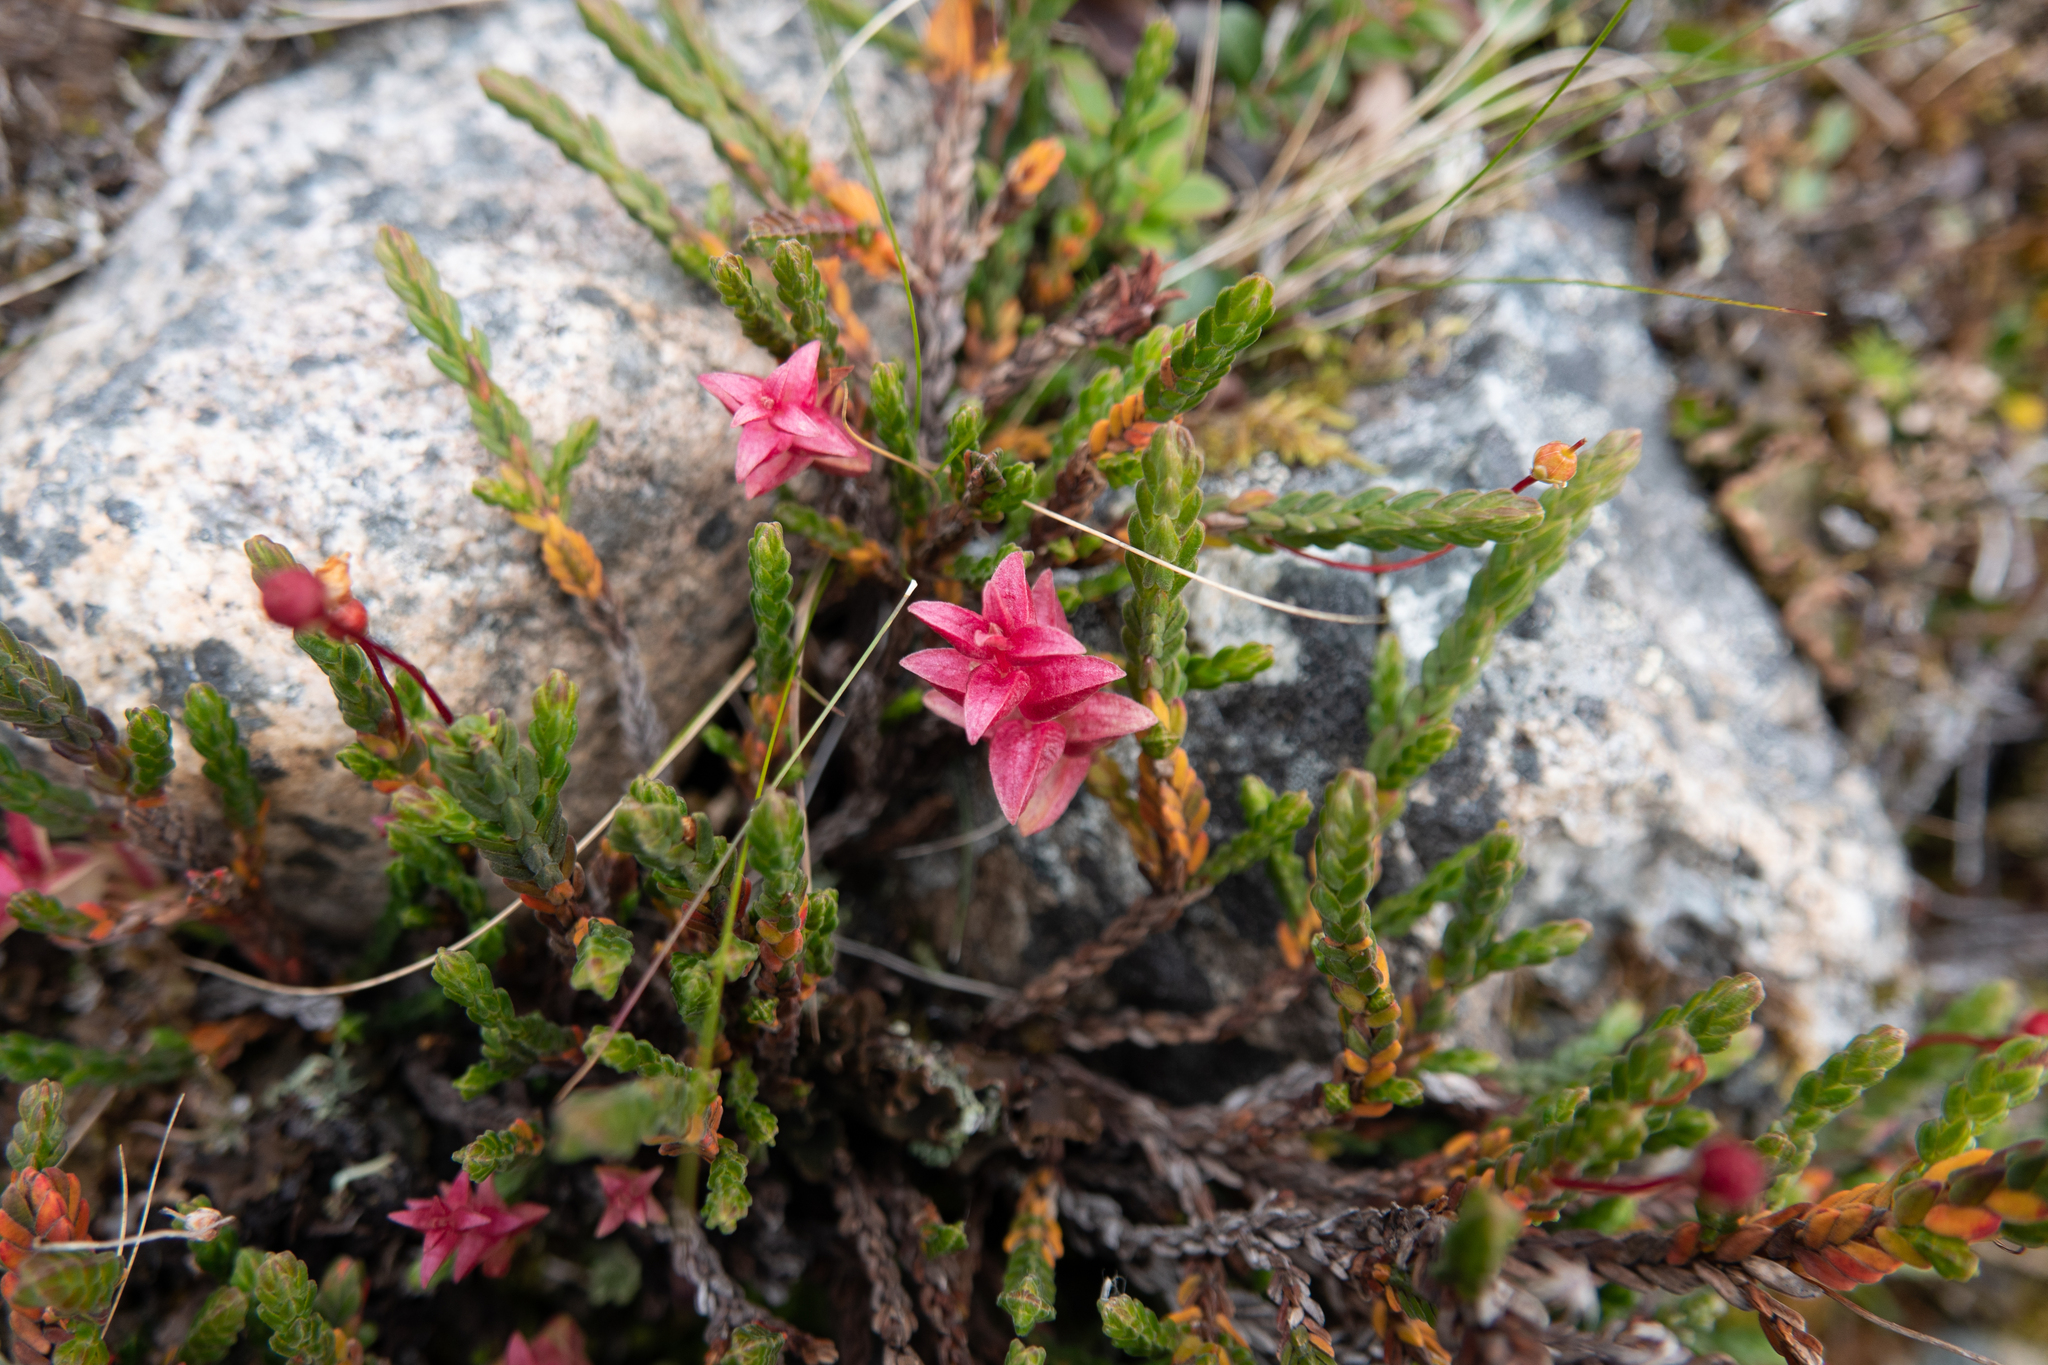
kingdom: Plantae
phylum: Tracheophyta
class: Magnoliopsida
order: Ericales
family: Ericaceae
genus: Cassiope
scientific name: Cassiope tetragona
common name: Arctic bell heather
